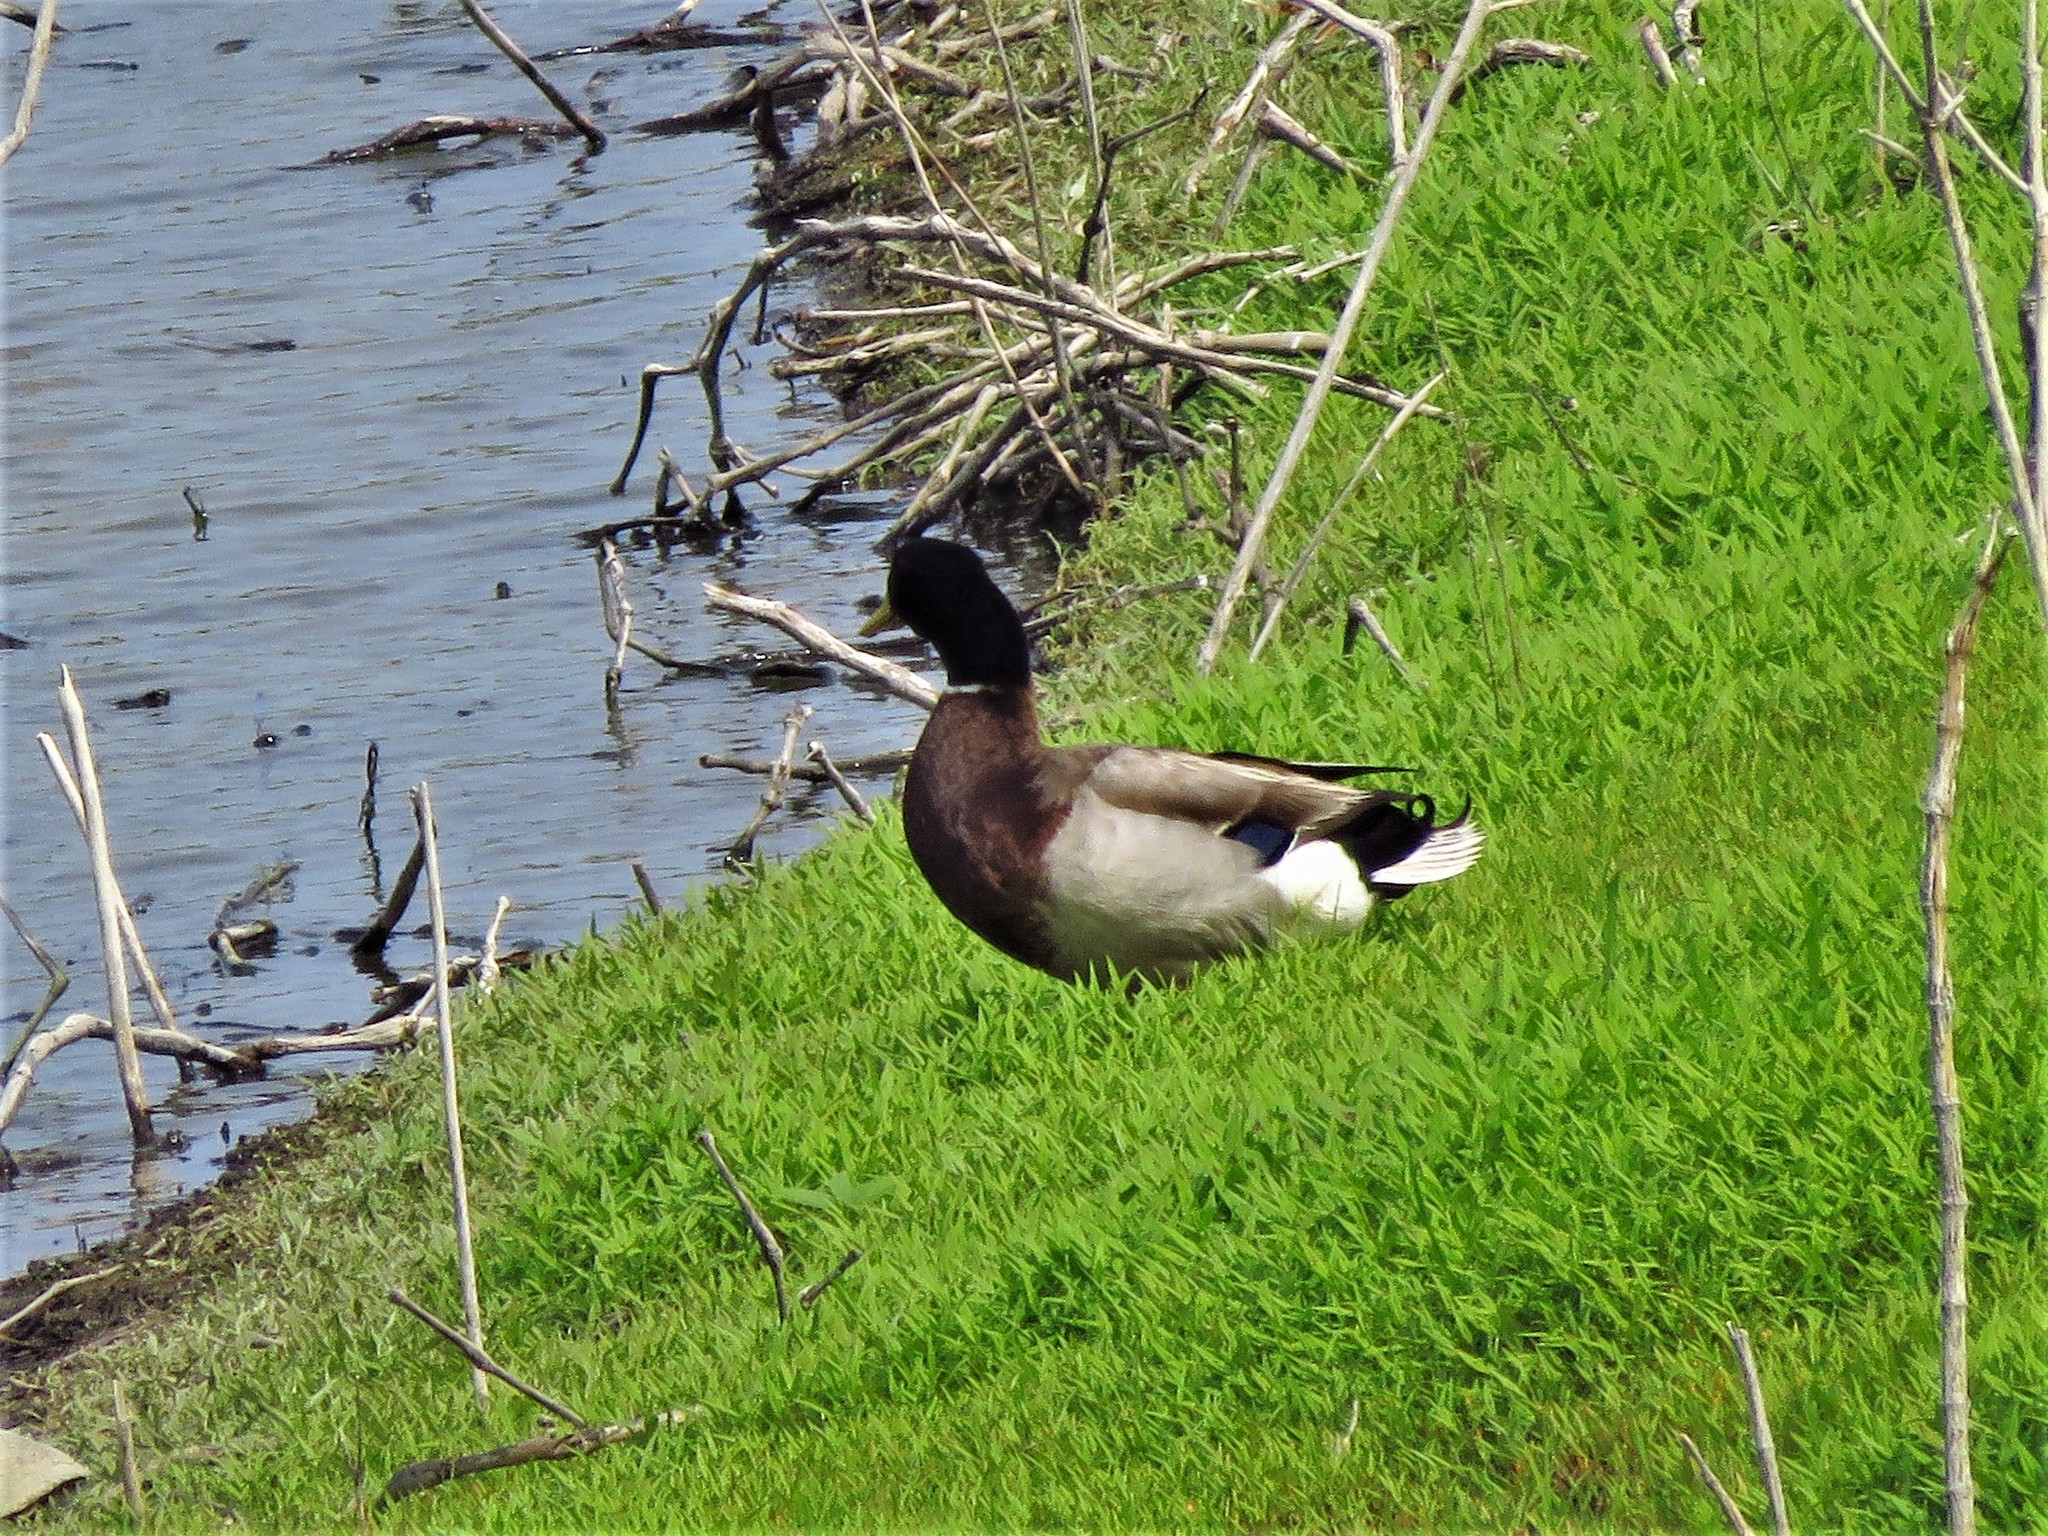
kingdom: Animalia
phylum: Chordata
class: Aves
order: Anseriformes
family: Anatidae
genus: Anas
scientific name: Anas platyrhynchos
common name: Mallard
